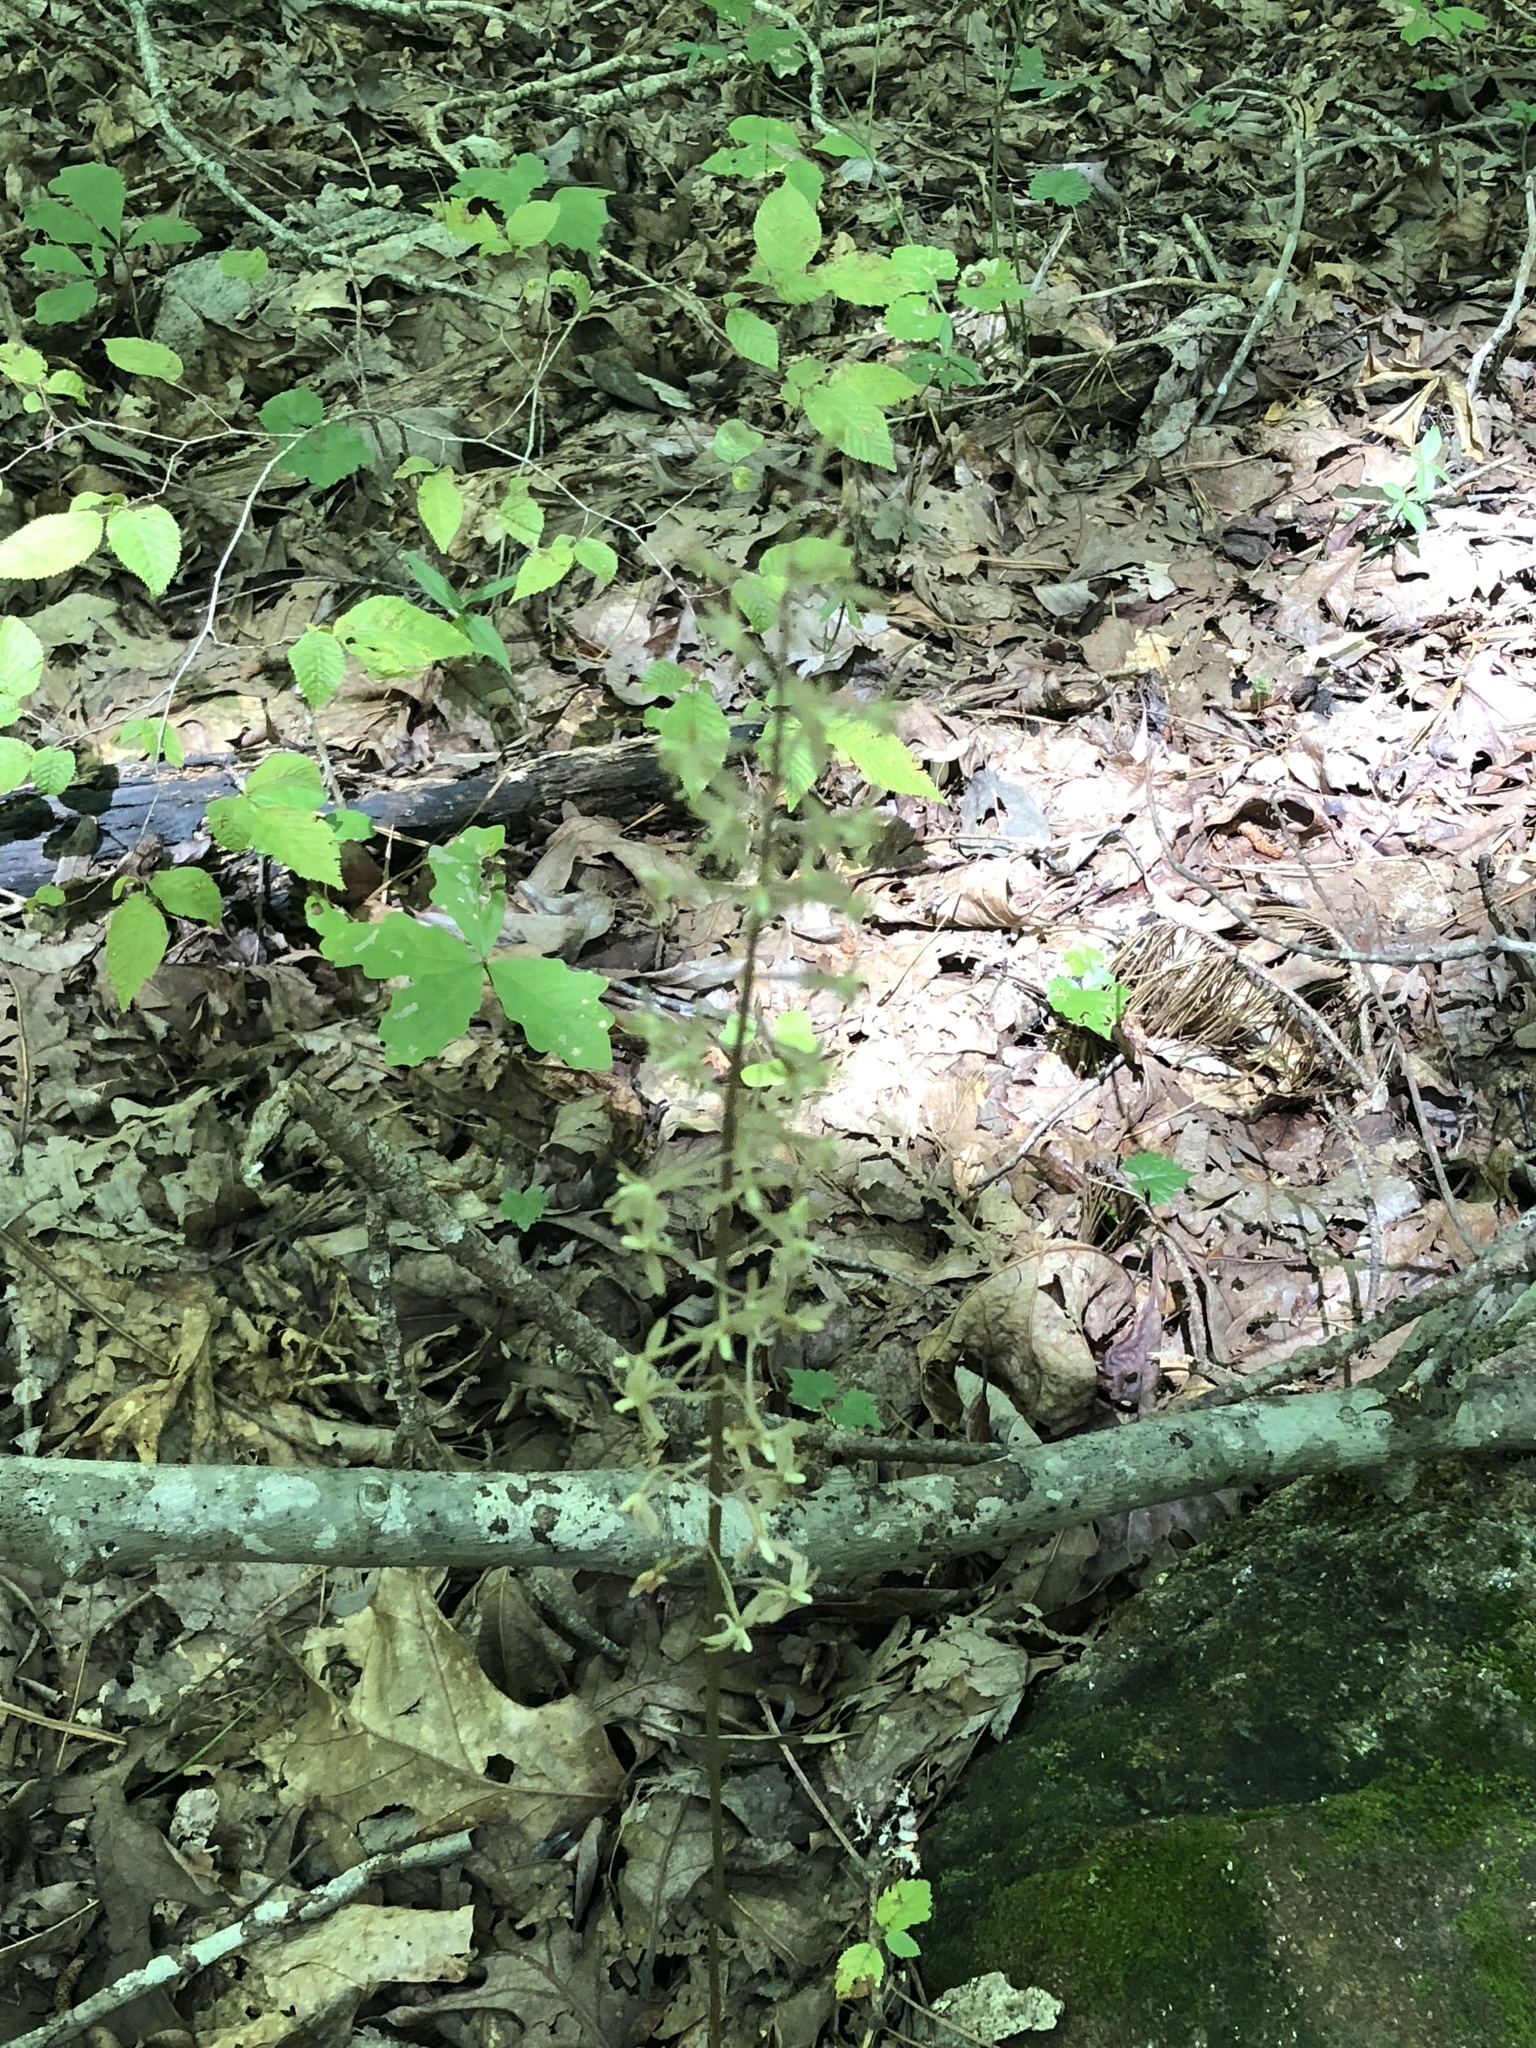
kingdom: Plantae
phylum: Tracheophyta
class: Liliopsida
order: Asparagales
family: Orchidaceae
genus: Tipularia
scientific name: Tipularia discolor
